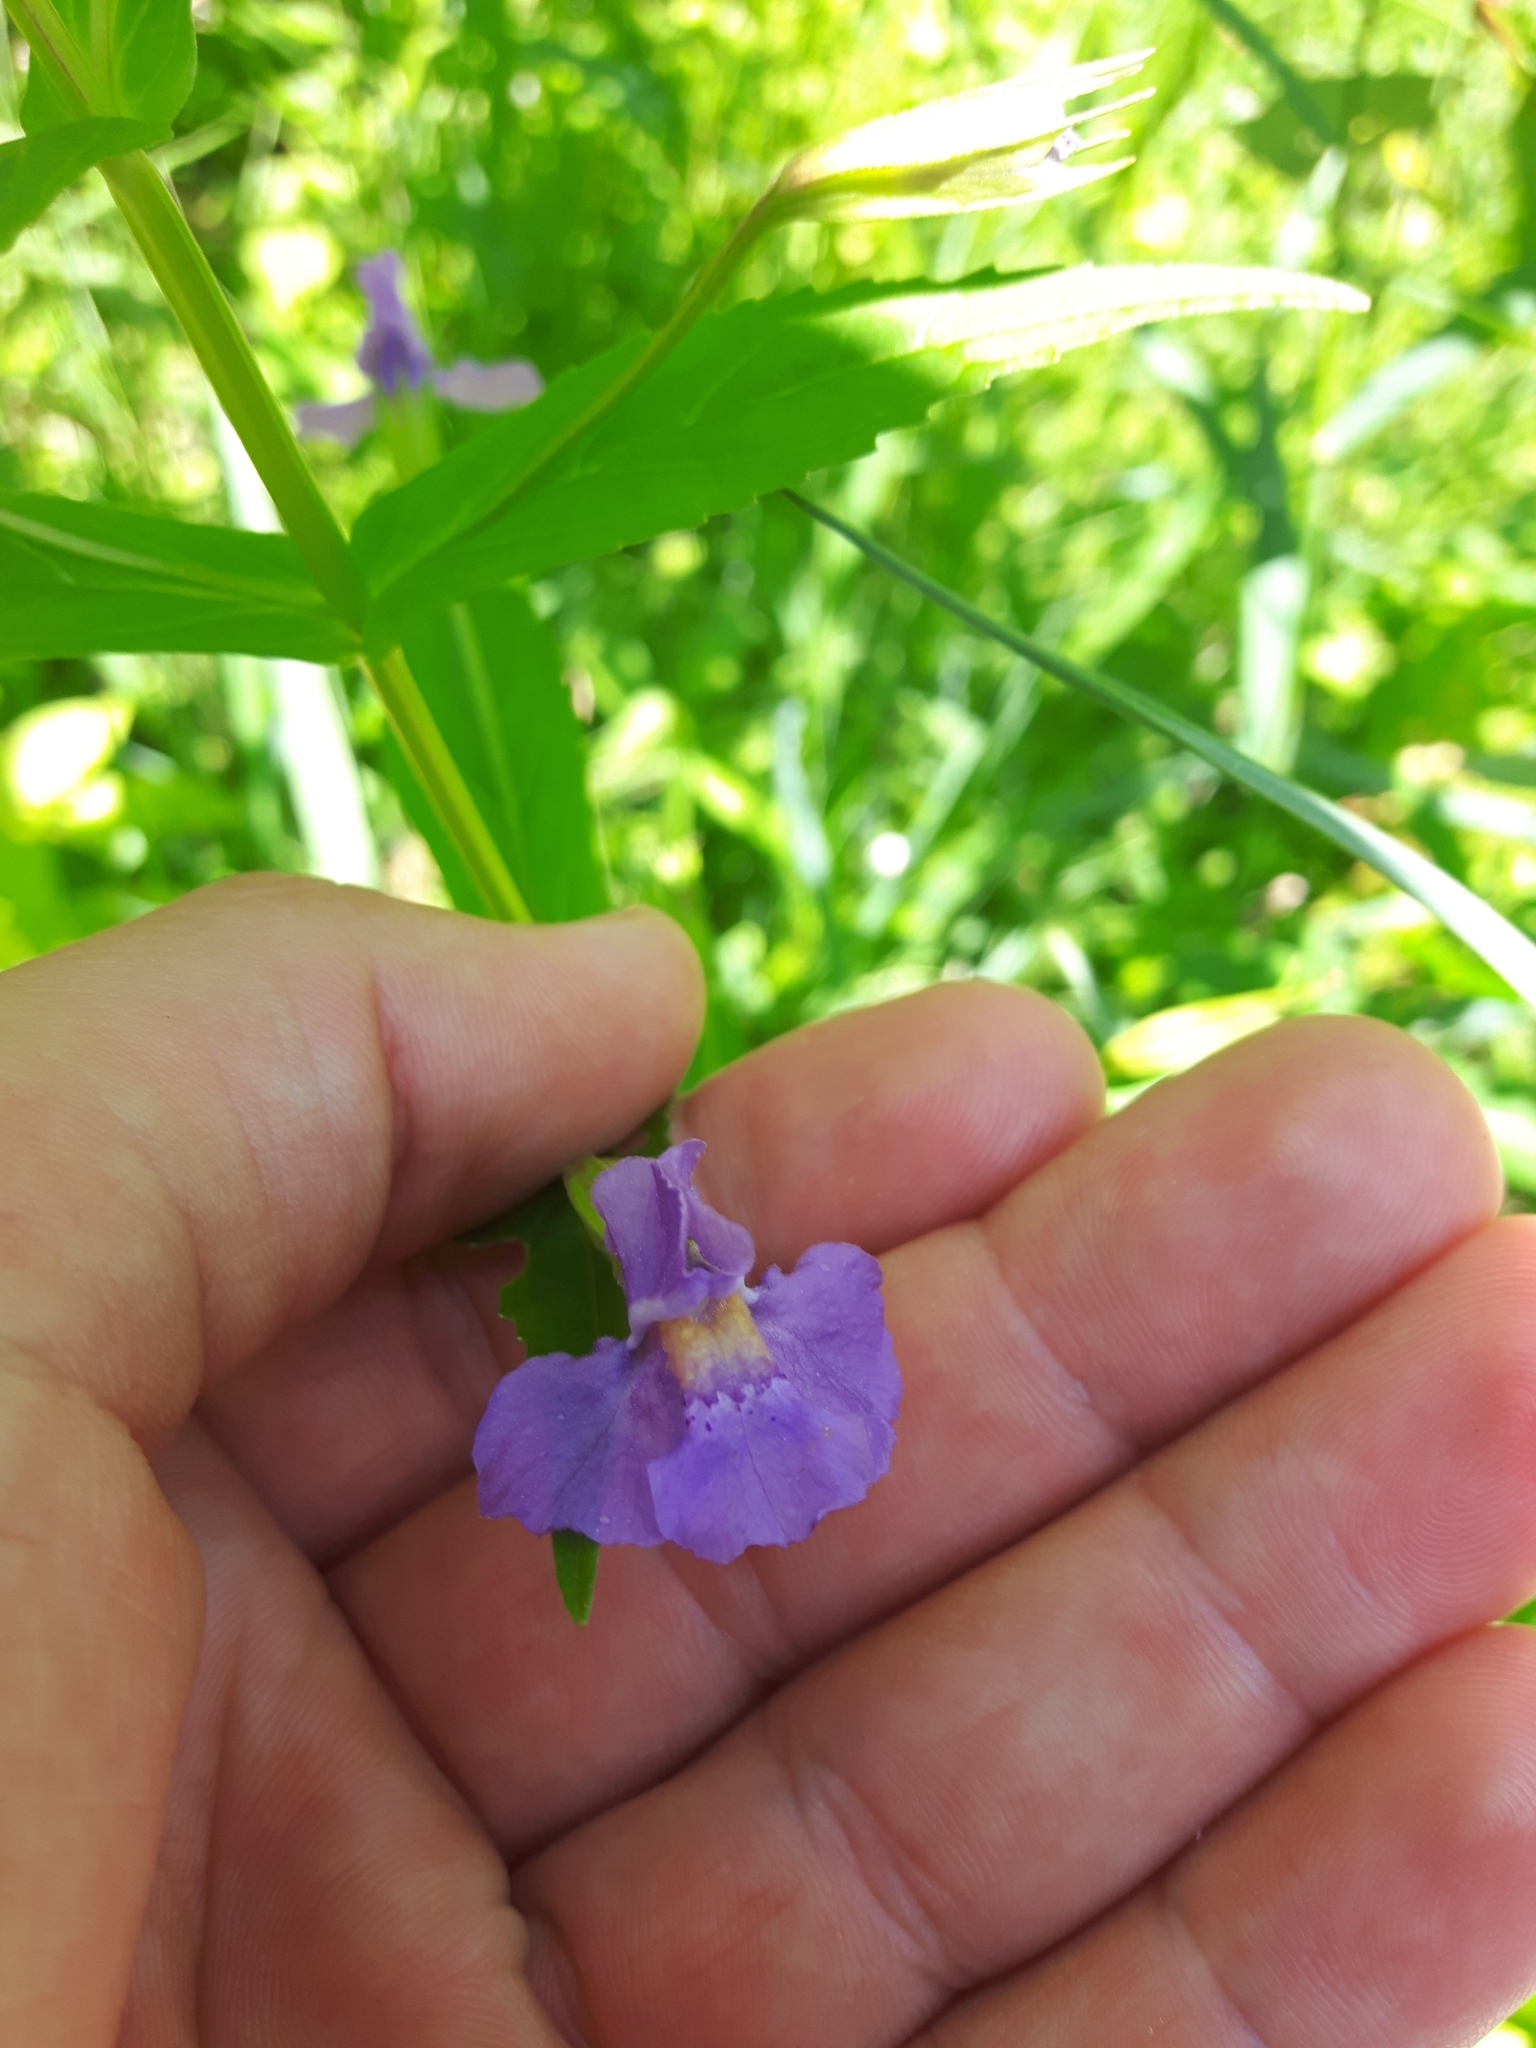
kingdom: Plantae
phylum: Tracheophyta
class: Magnoliopsida
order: Lamiales
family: Phrymaceae
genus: Mimulus
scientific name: Mimulus ringens
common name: Allegheny monkeyflower
